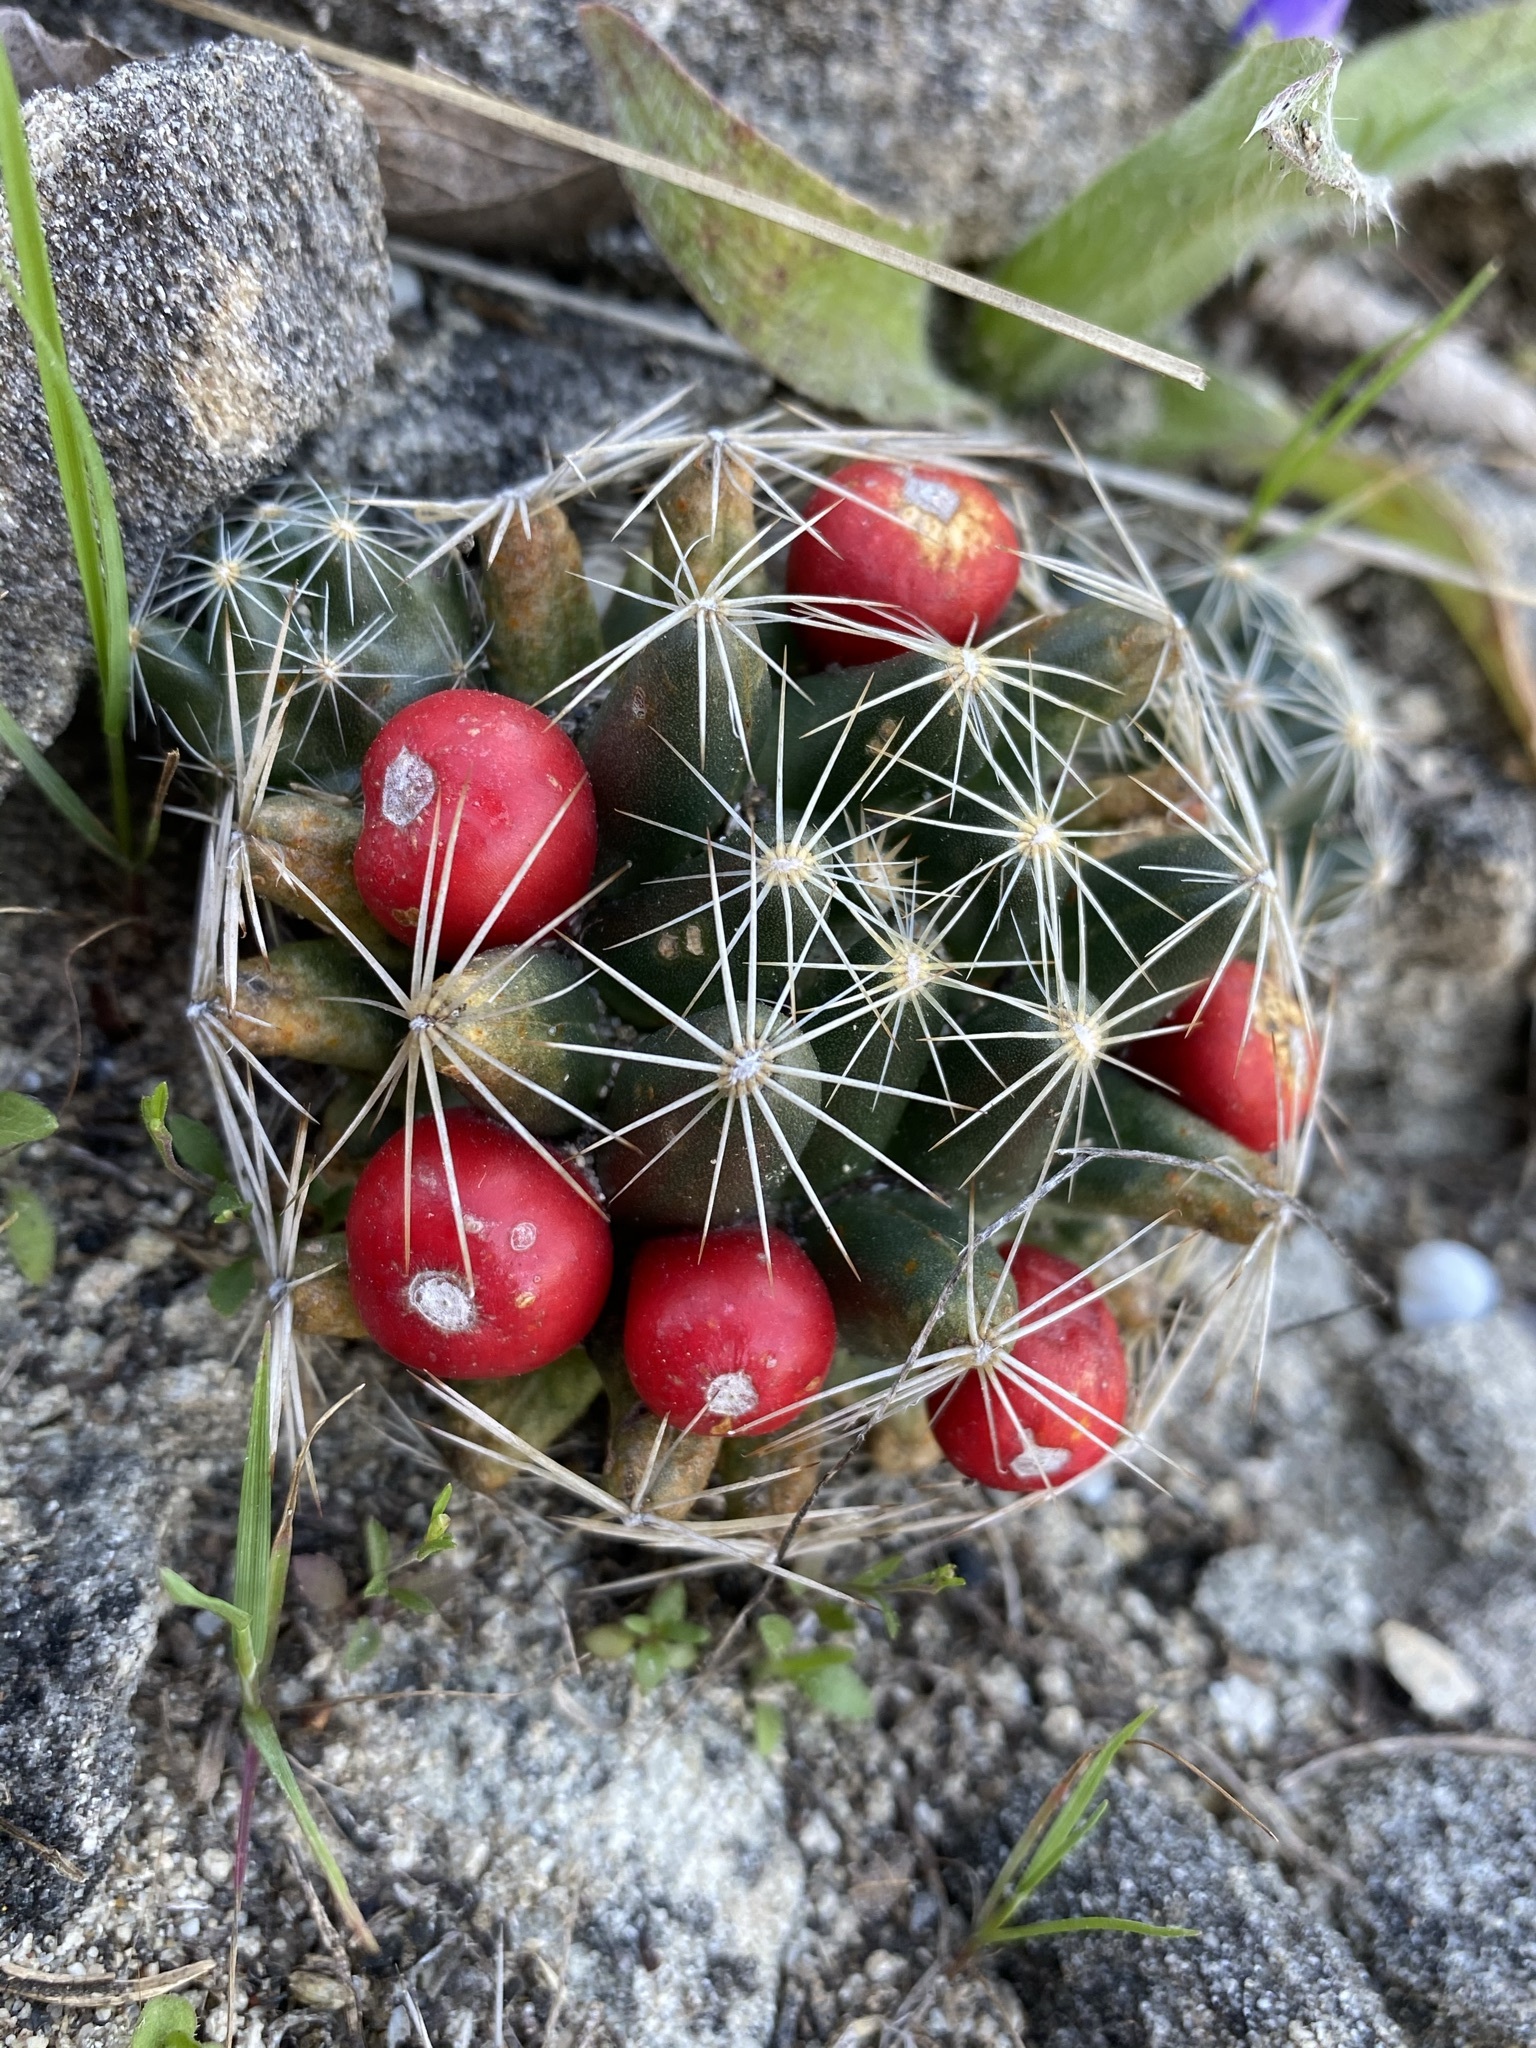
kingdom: Plantae
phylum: Tracheophyta
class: Magnoliopsida
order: Caryophyllales
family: Cactaceae
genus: Pelecyphora
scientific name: Pelecyphora missouriensis
